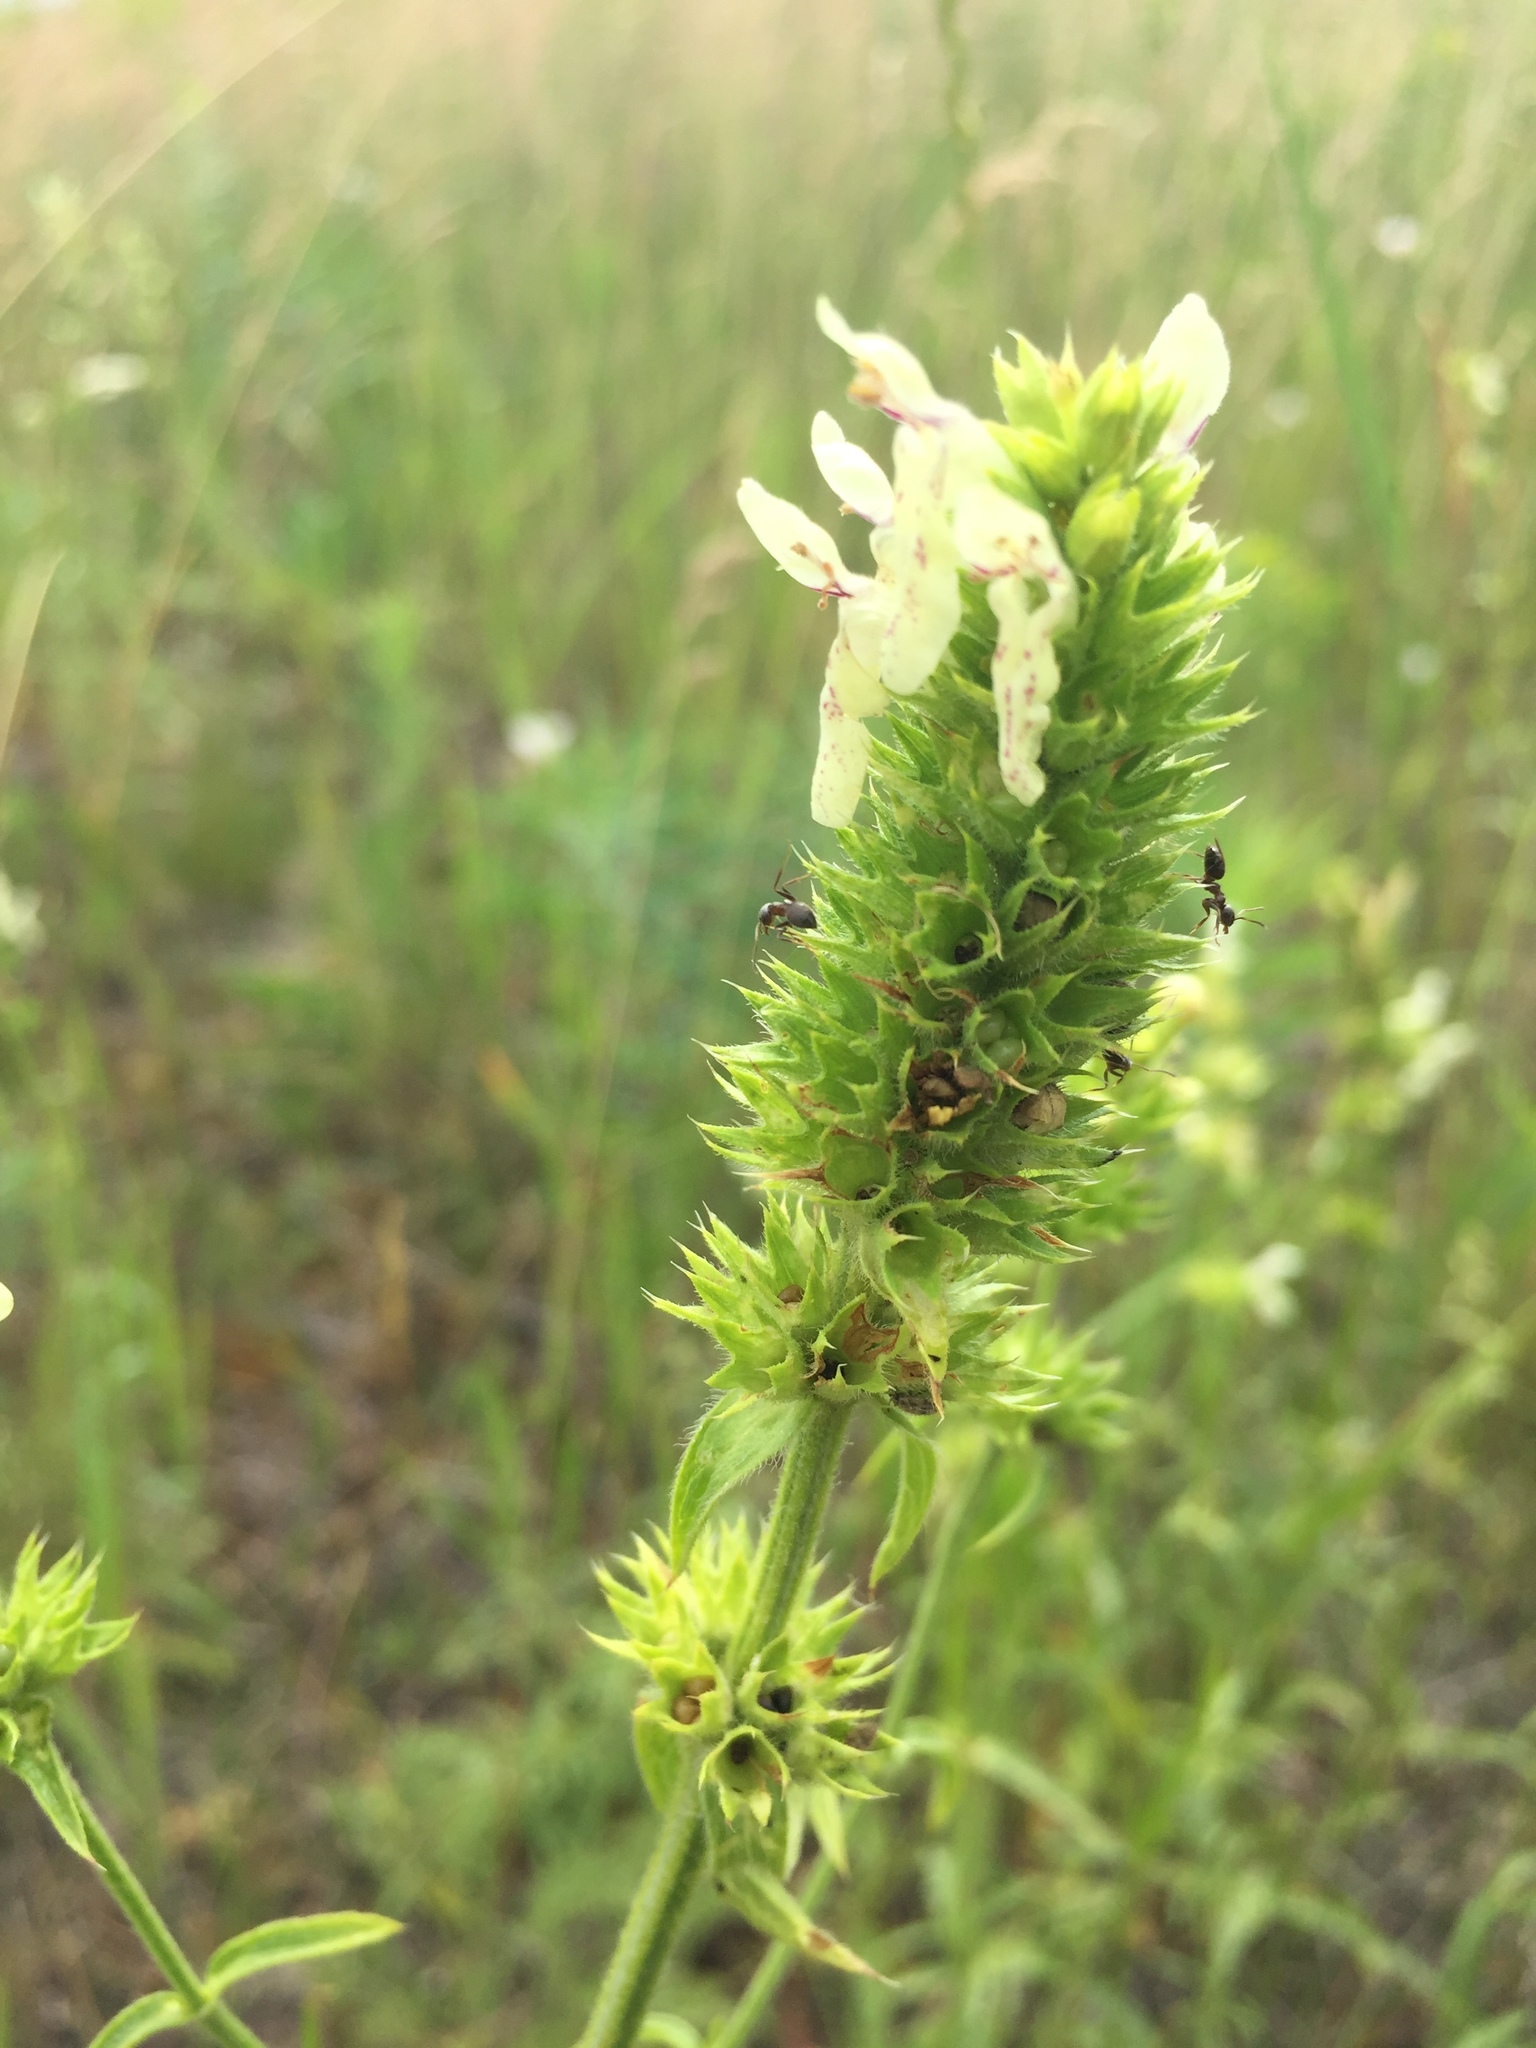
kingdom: Plantae
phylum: Tracheophyta
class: Magnoliopsida
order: Lamiales
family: Lamiaceae
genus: Stachys
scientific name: Stachys recta
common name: Perennial yellow-woundwort
